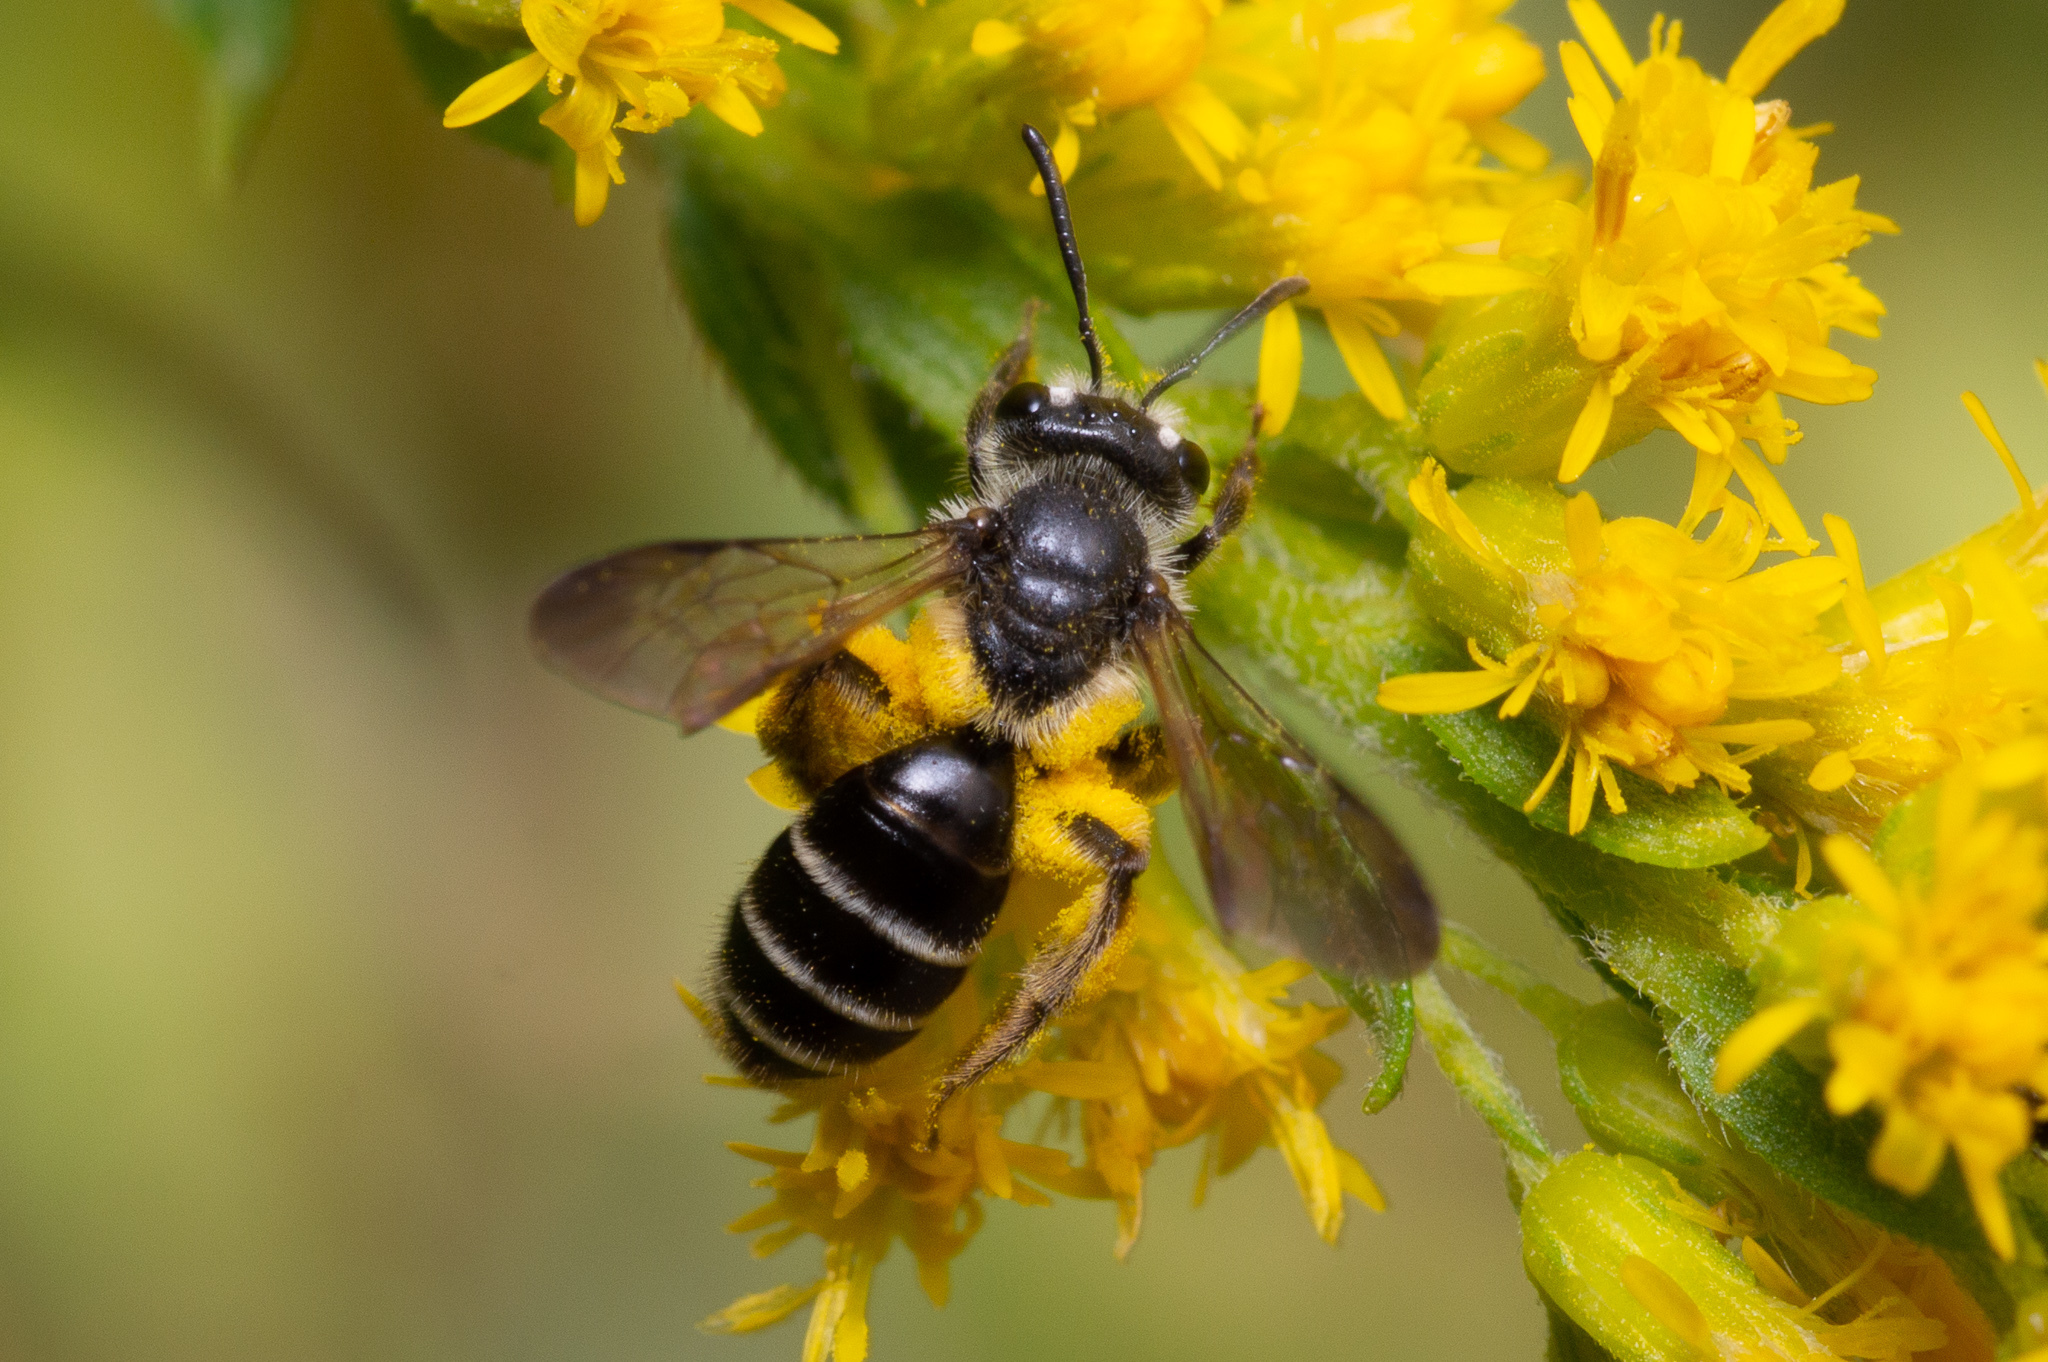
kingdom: Animalia
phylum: Arthropoda
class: Insecta
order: Hymenoptera
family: Andrenidae
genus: Andrena
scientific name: Andrena nubecula
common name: Cloudy-winged mining bee
